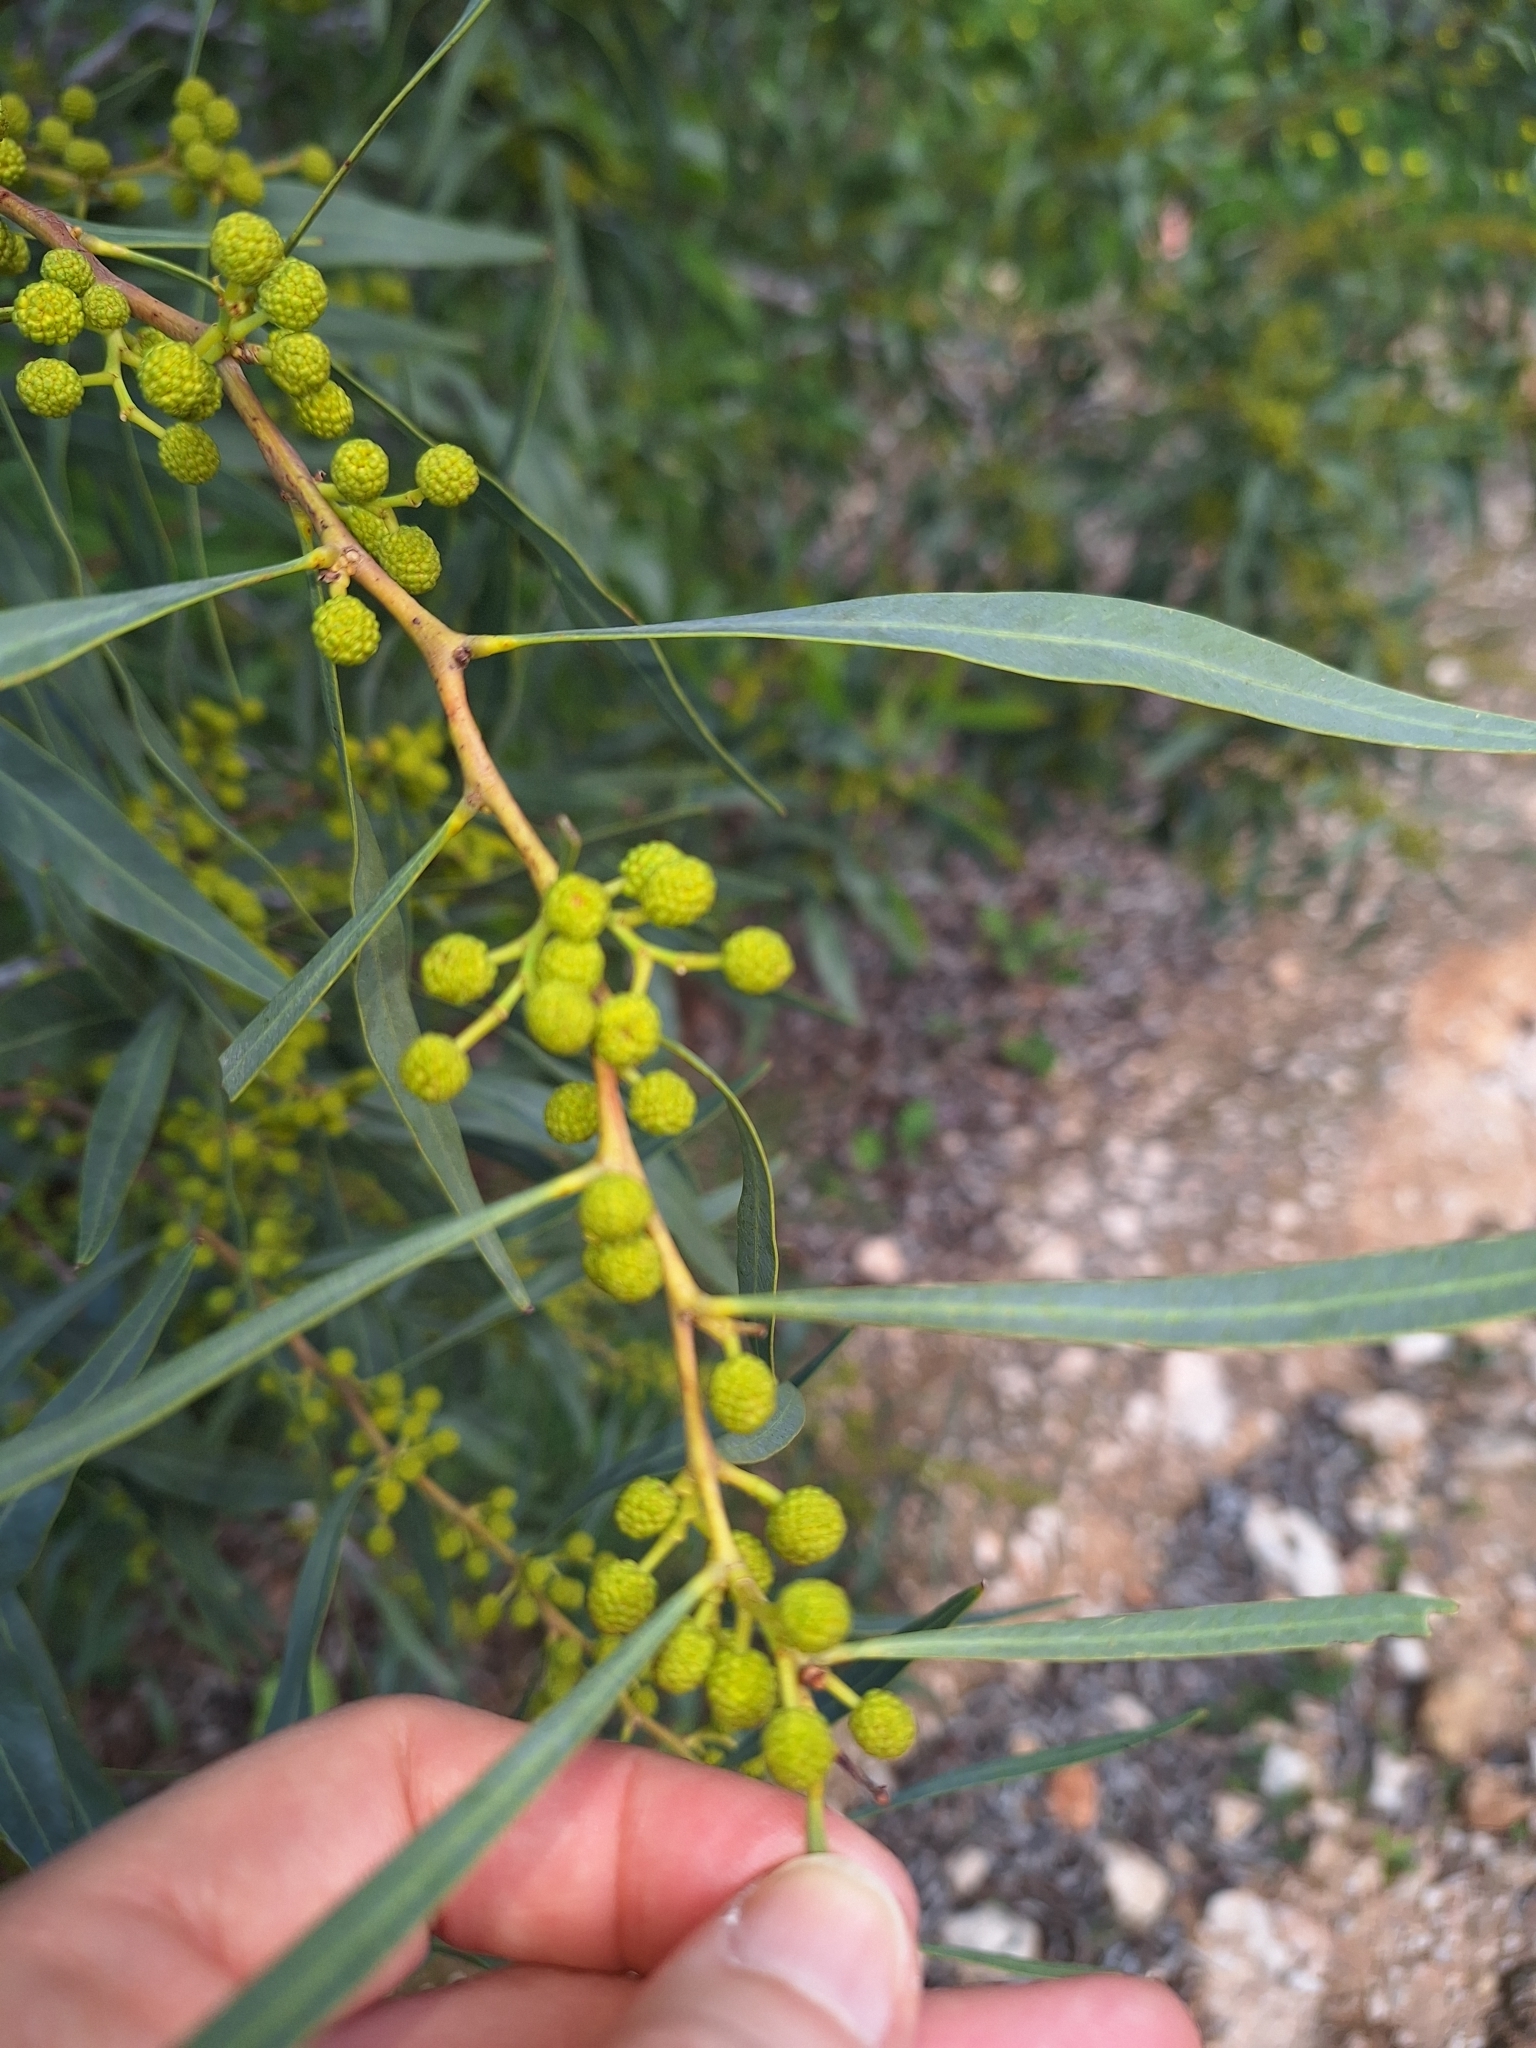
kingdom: Plantae
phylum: Tracheophyta
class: Magnoliopsida
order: Fabales
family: Fabaceae
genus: Acacia
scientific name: Acacia saligna
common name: Orange wattle
